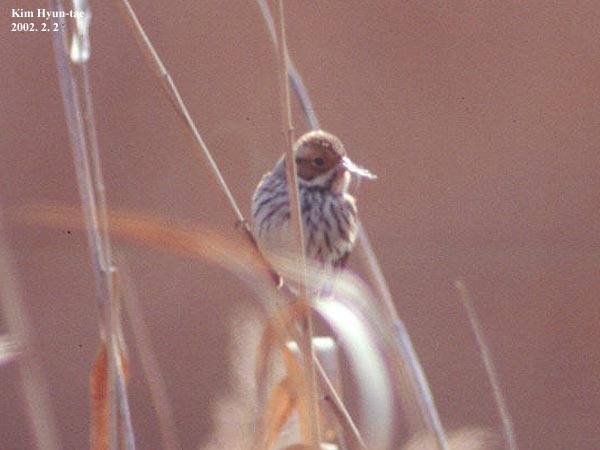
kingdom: Animalia
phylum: Chordata
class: Aves
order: Passeriformes
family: Emberizidae
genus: Emberiza
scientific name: Emberiza pusilla
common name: Little bunting
